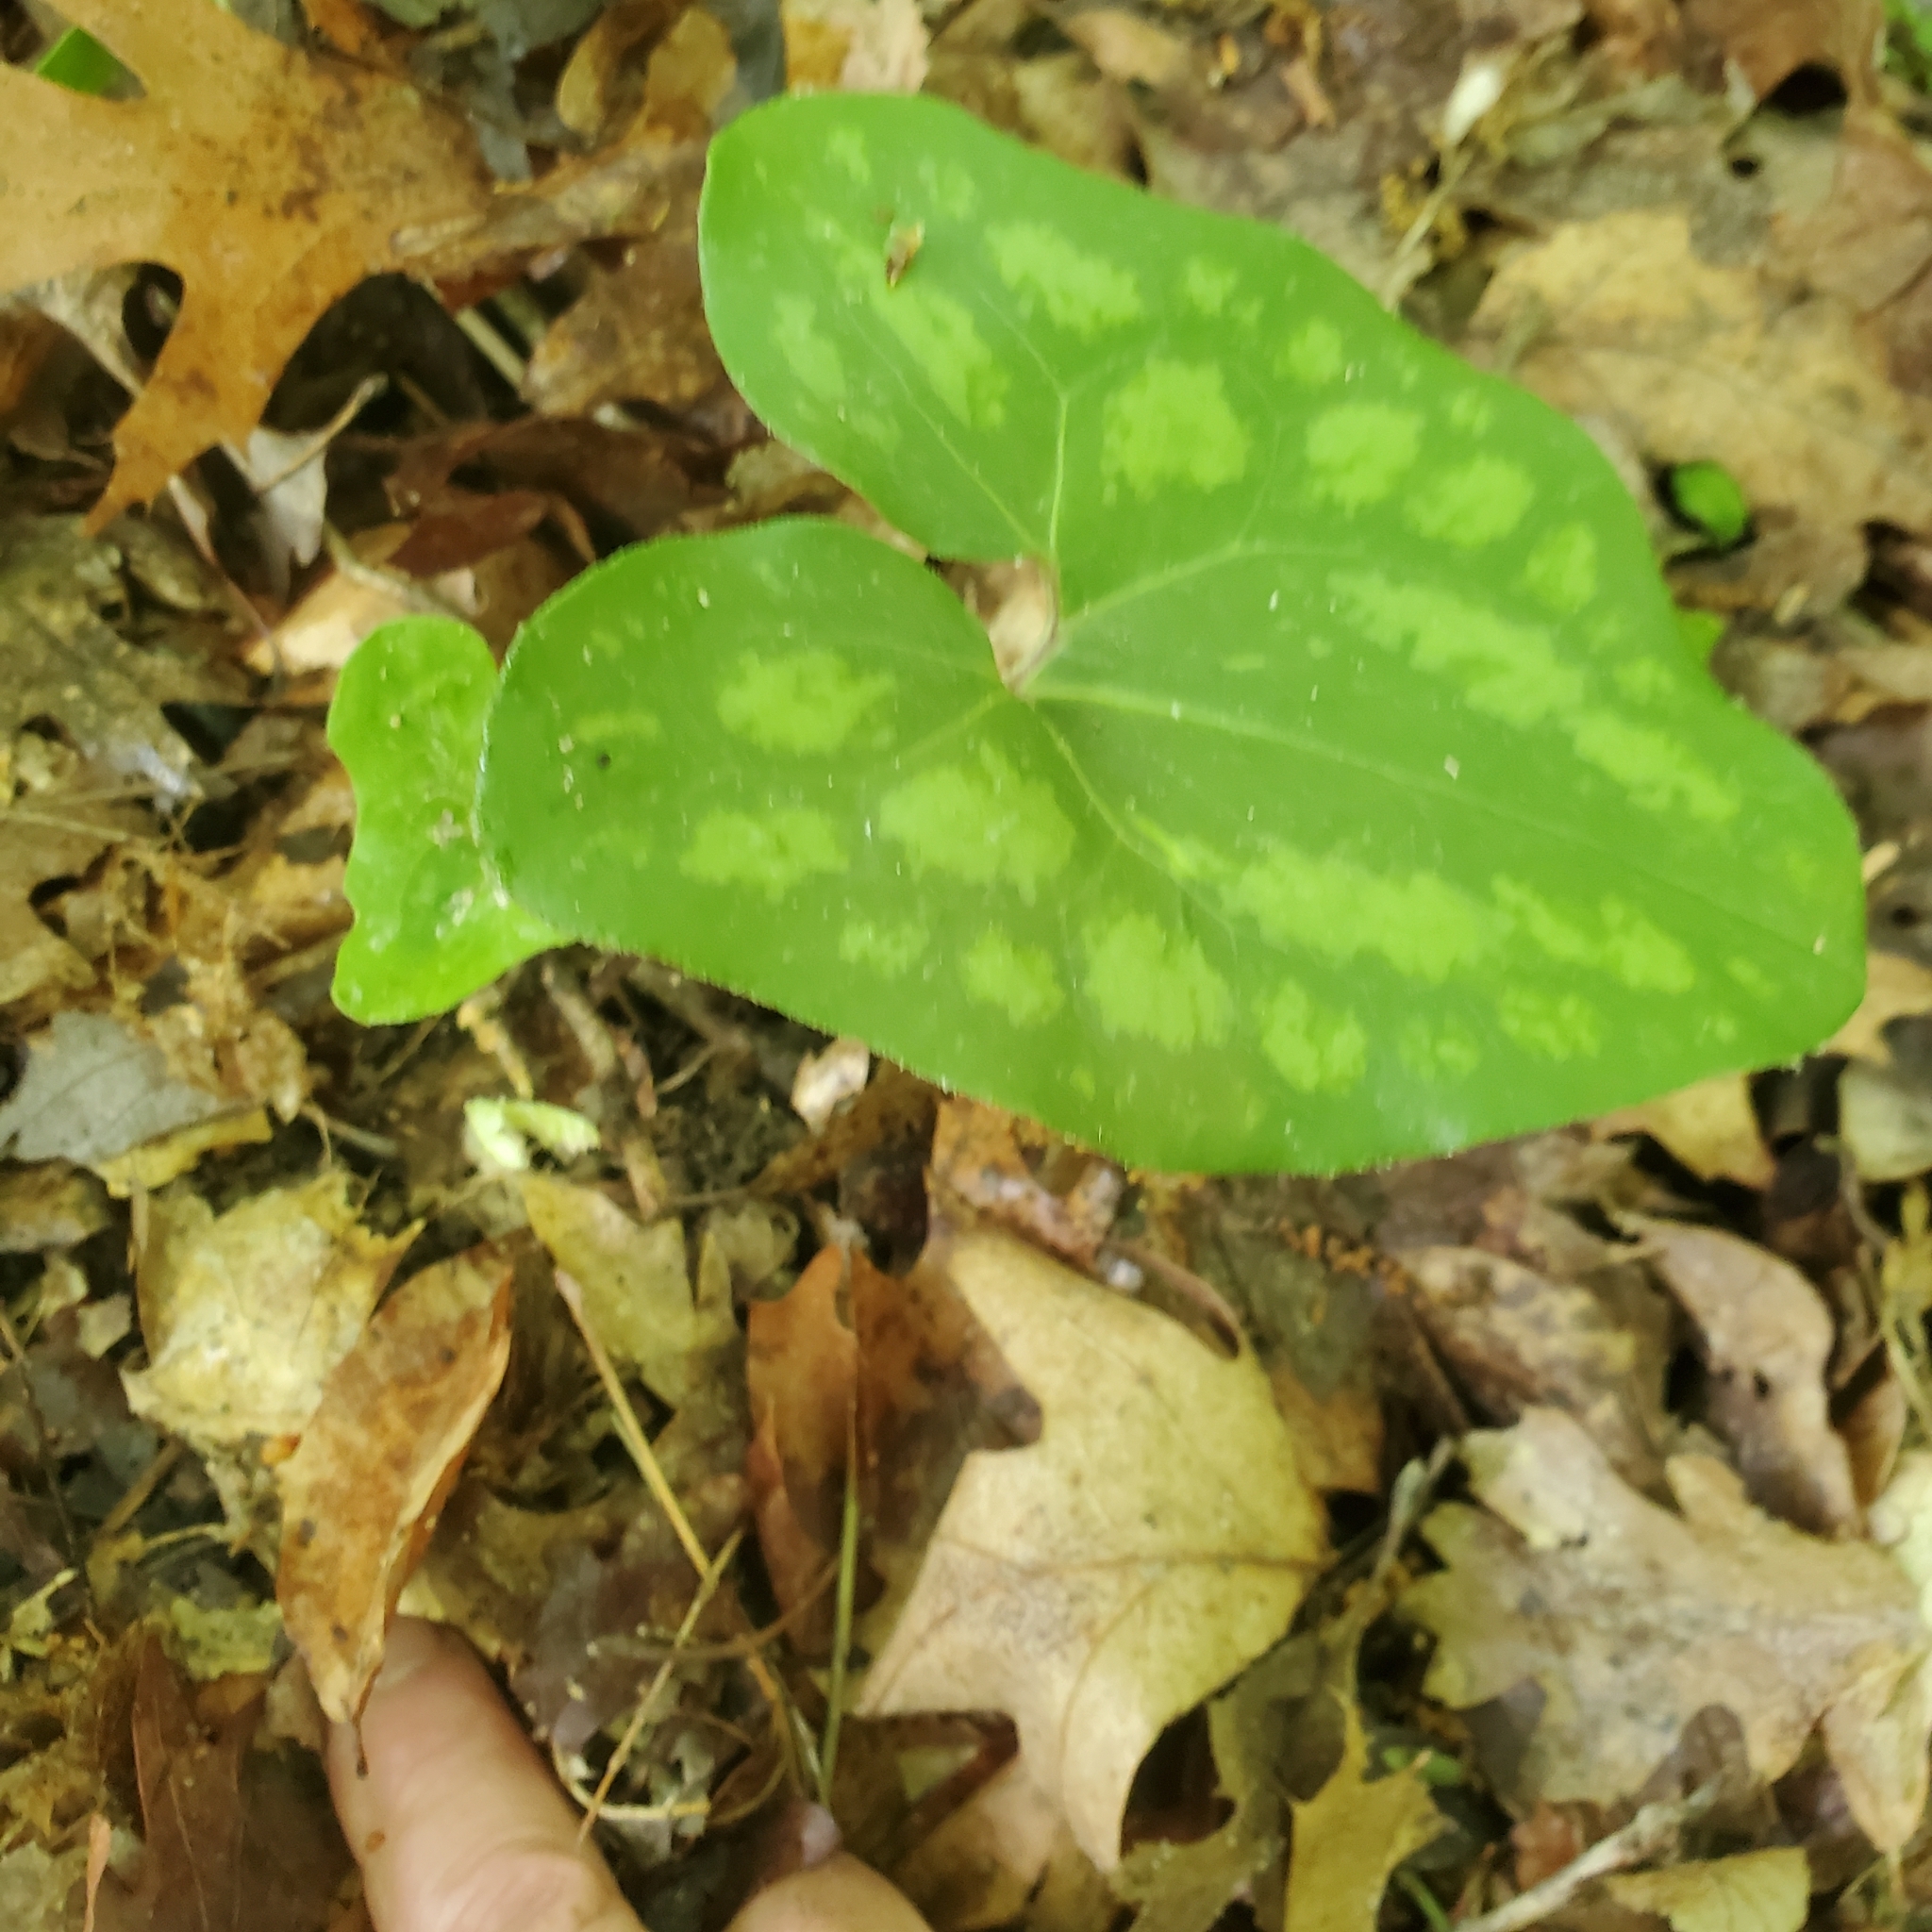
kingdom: Plantae
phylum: Tracheophyta
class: Magnoliopsida
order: Piperales
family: Aristolochiaceae
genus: Hexastylis
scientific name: Hexastylis arifolia
